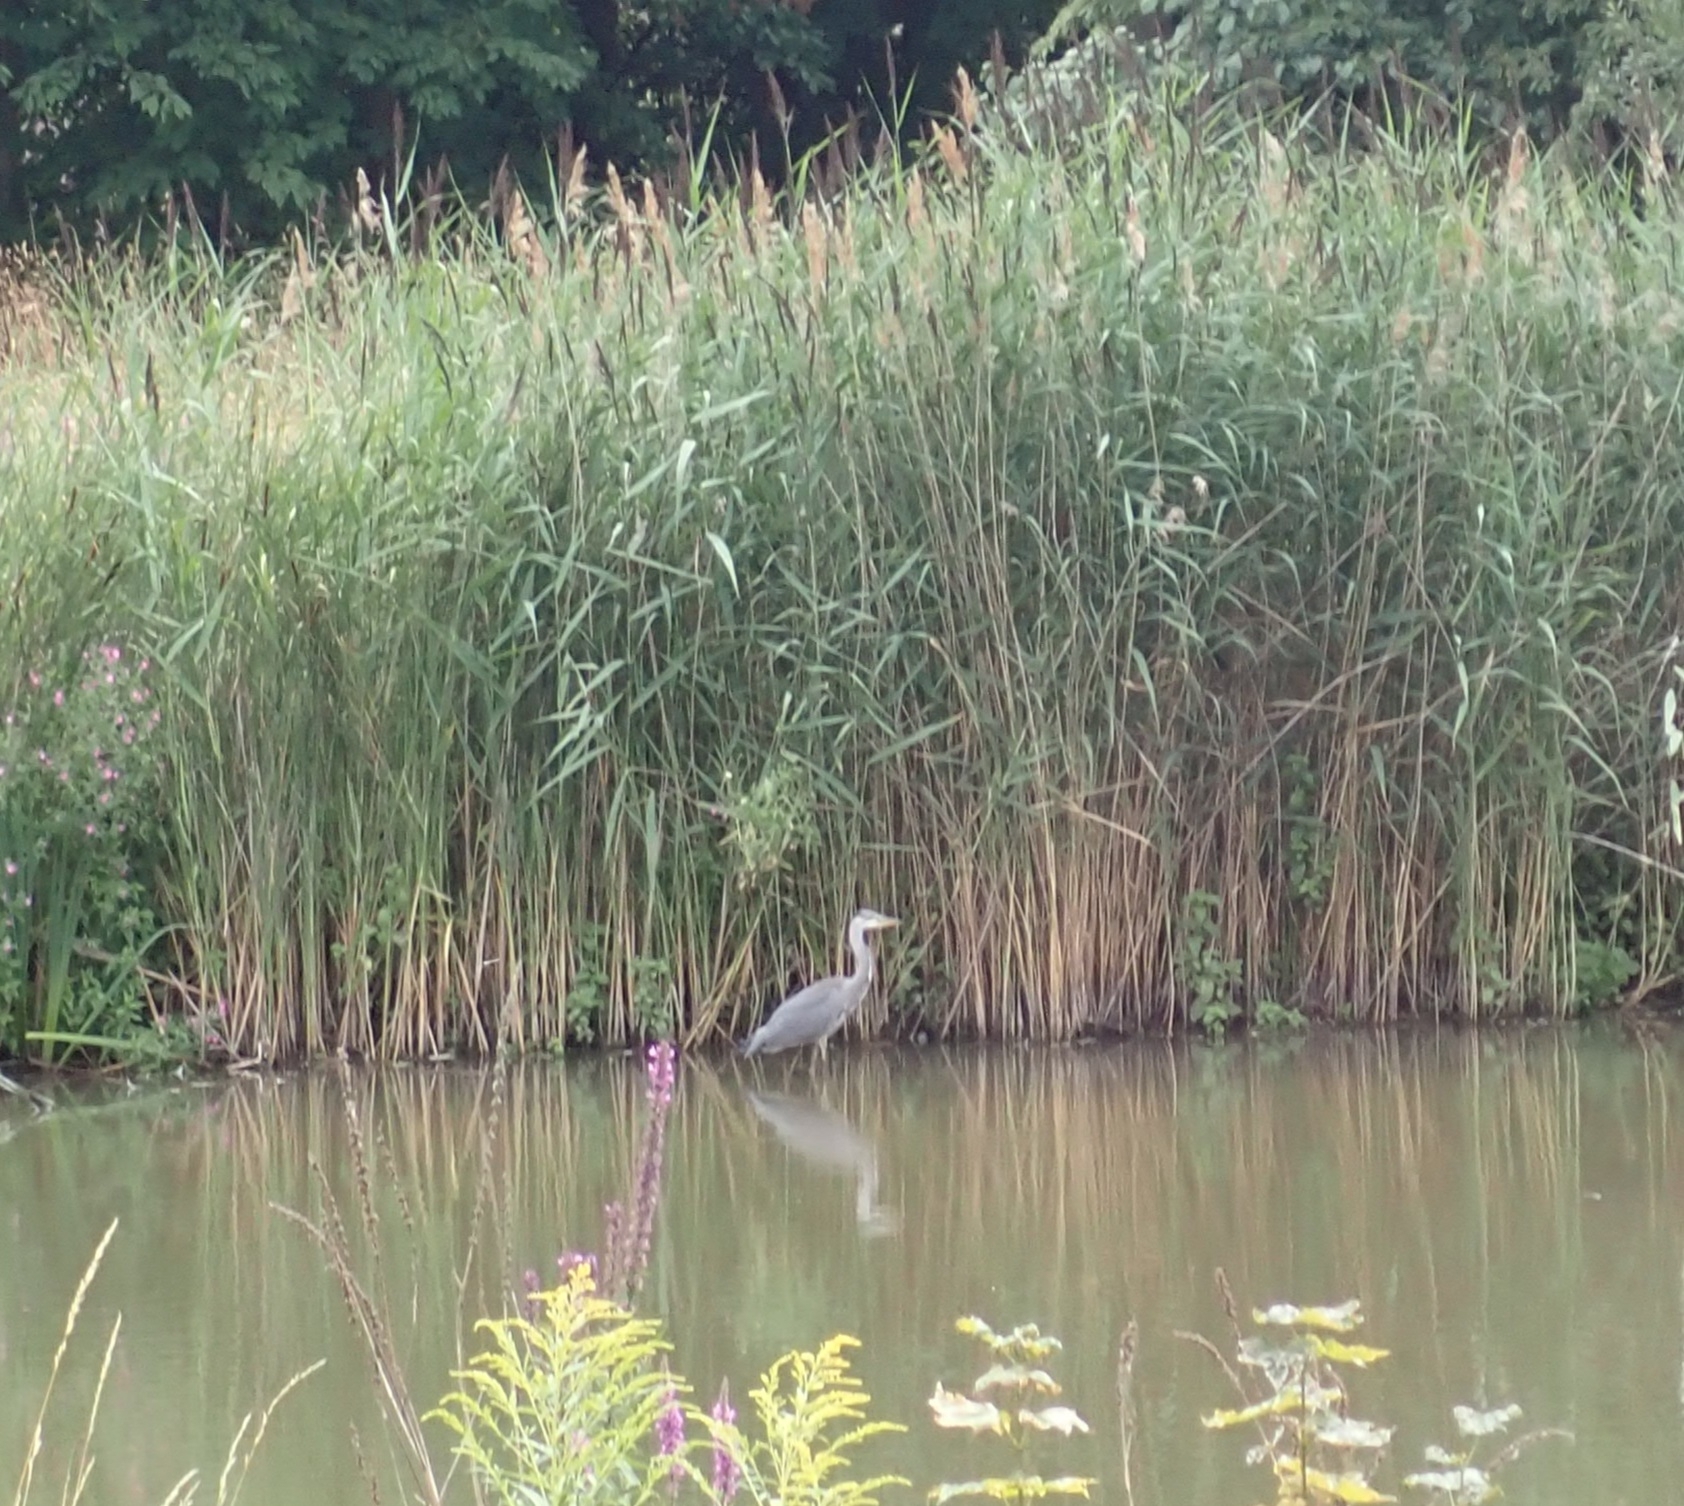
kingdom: Animalia
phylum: Chordata
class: Aves
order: Pelecaniformes
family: Ardeidae
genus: Ardea
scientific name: Ardea cinerea
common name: Grey heron
